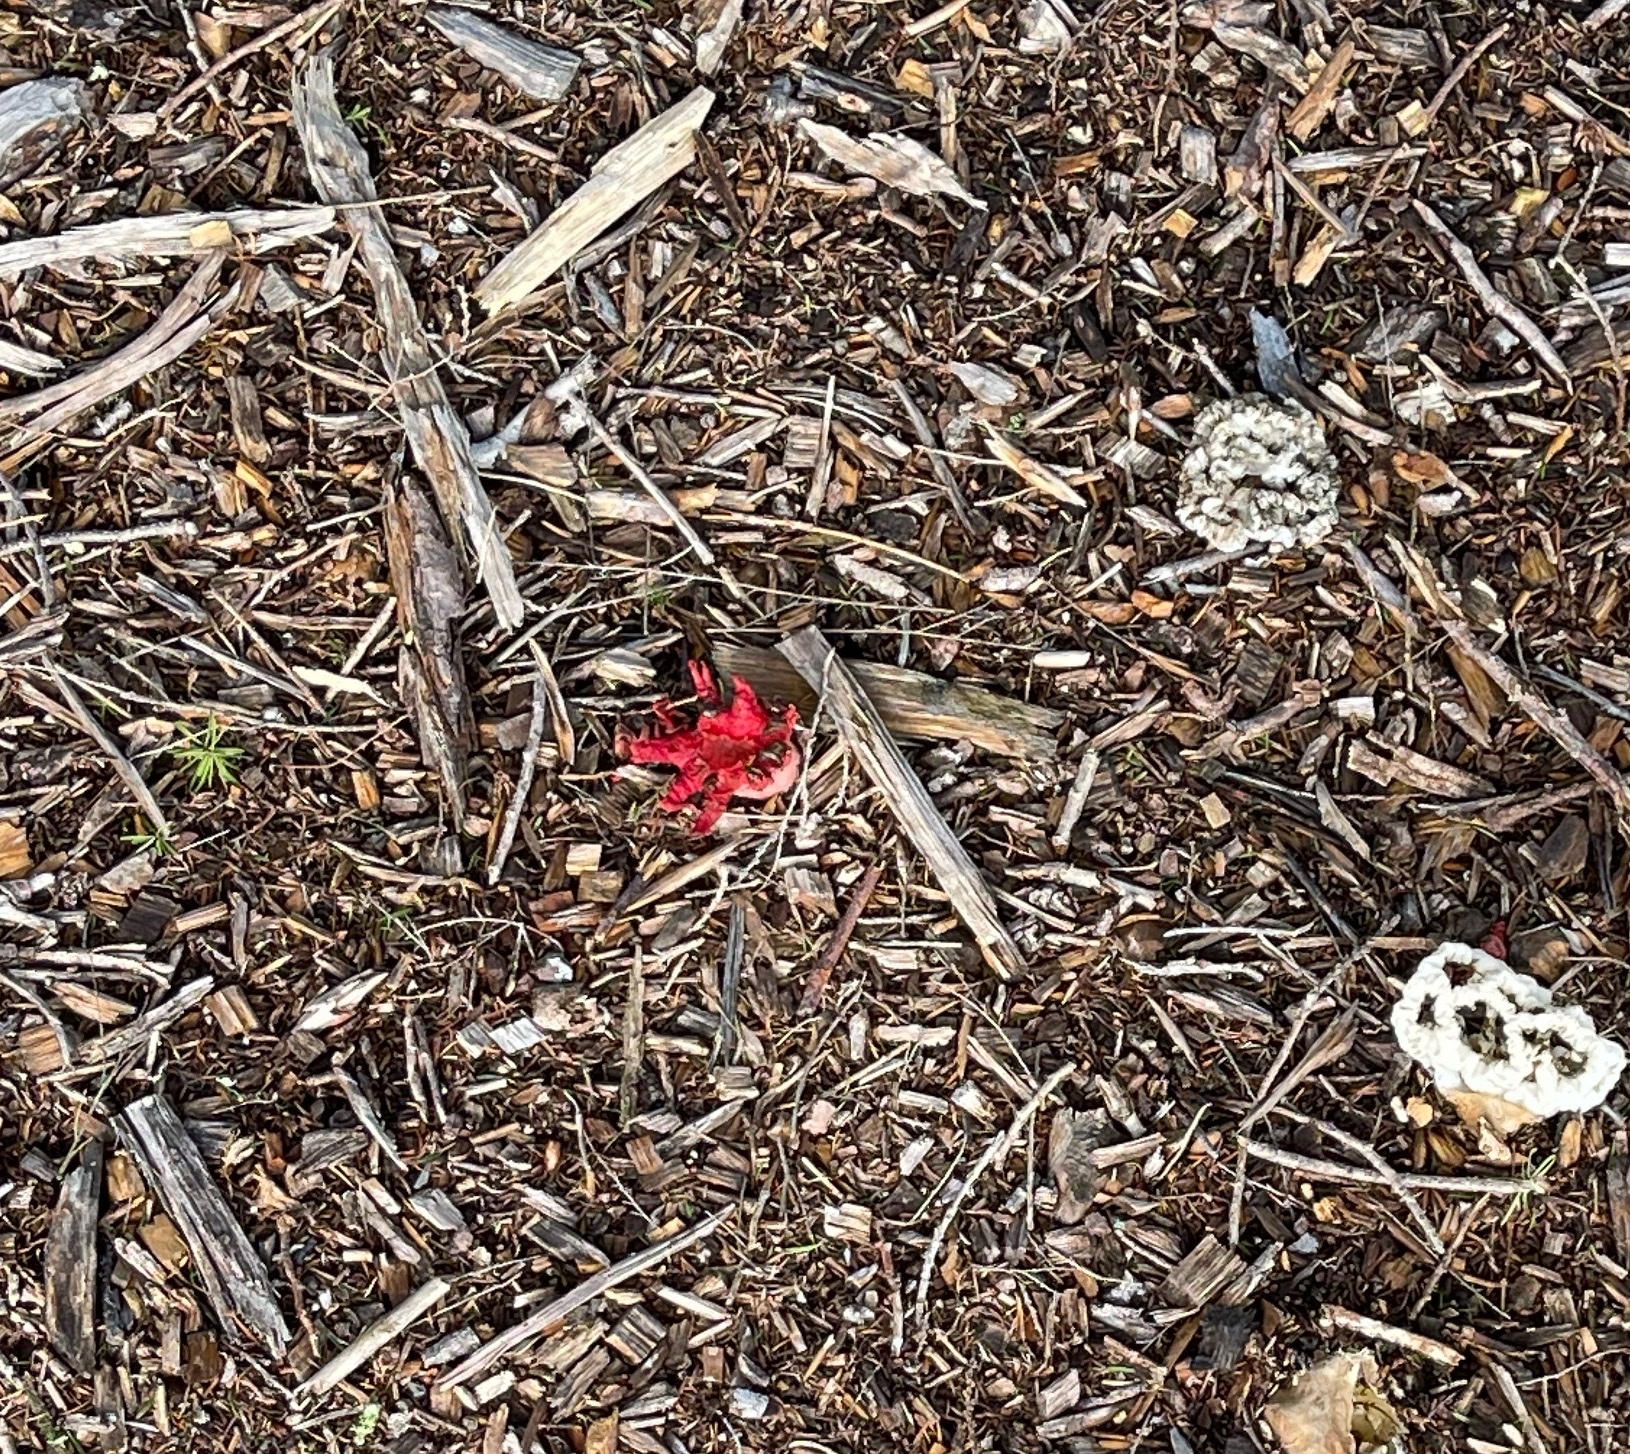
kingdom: Fungi
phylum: Basidiomycota
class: Agaricomycetes
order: Phallales
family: Phallaceae
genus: Aseroe
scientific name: Aseroe rubra
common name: Starfish fungus
